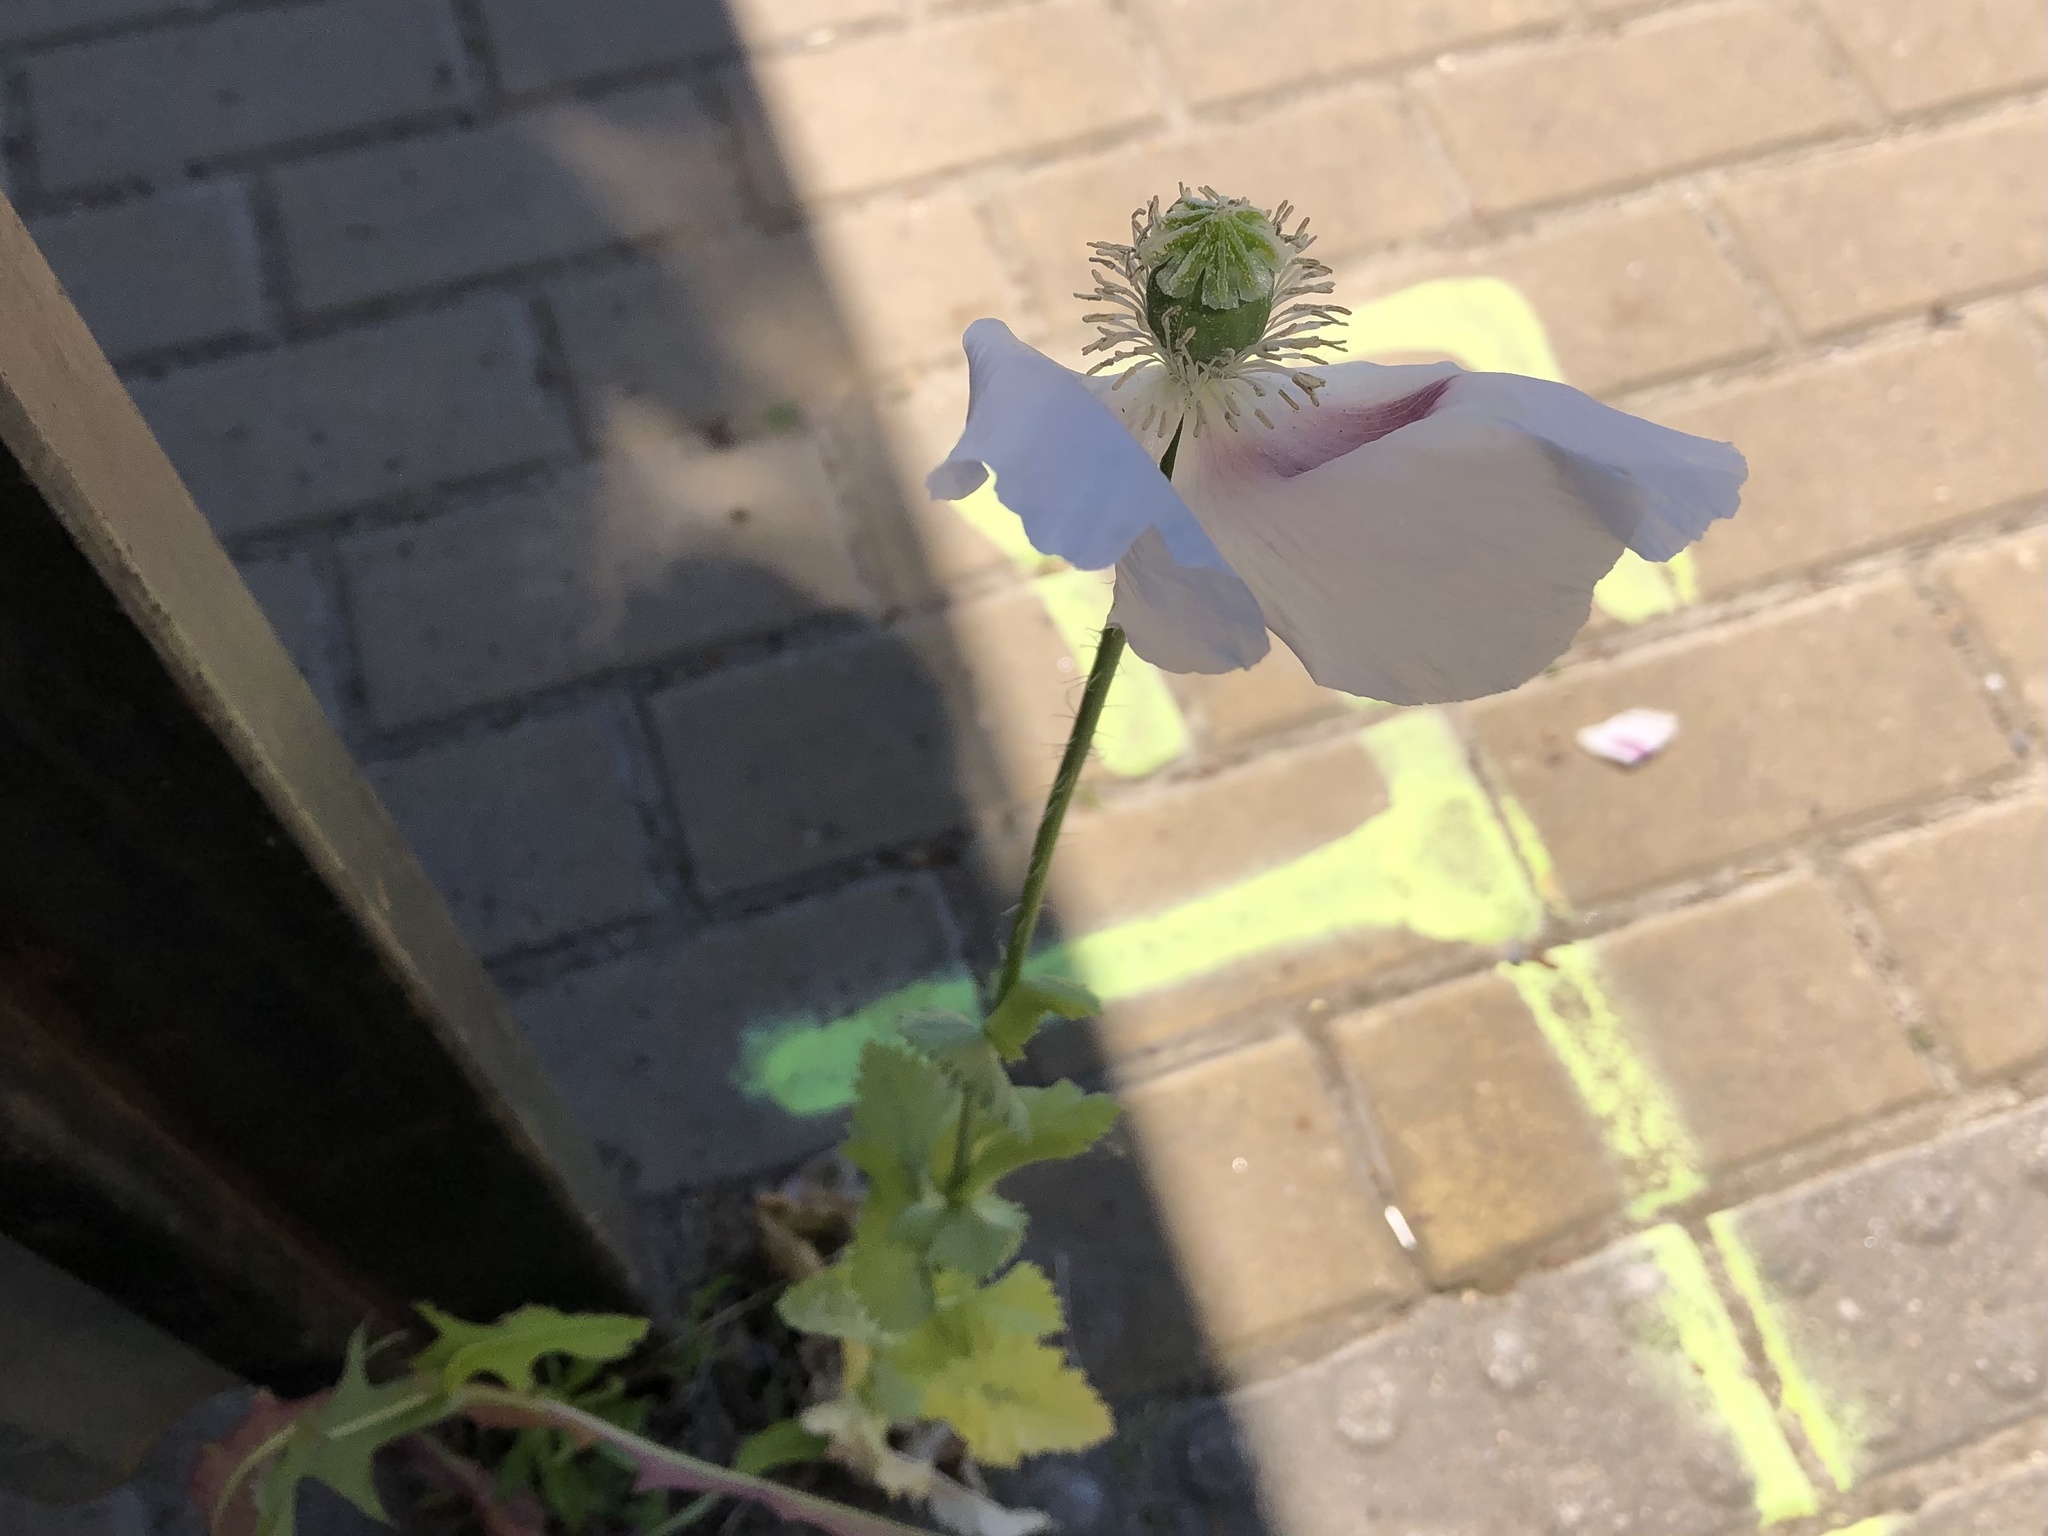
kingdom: Plantae
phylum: Tracheophyta
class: Magnoliopsida
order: Ranunculales
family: Papaveraceae
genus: Papaver
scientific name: Papaver somniferum
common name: Opium poppy
